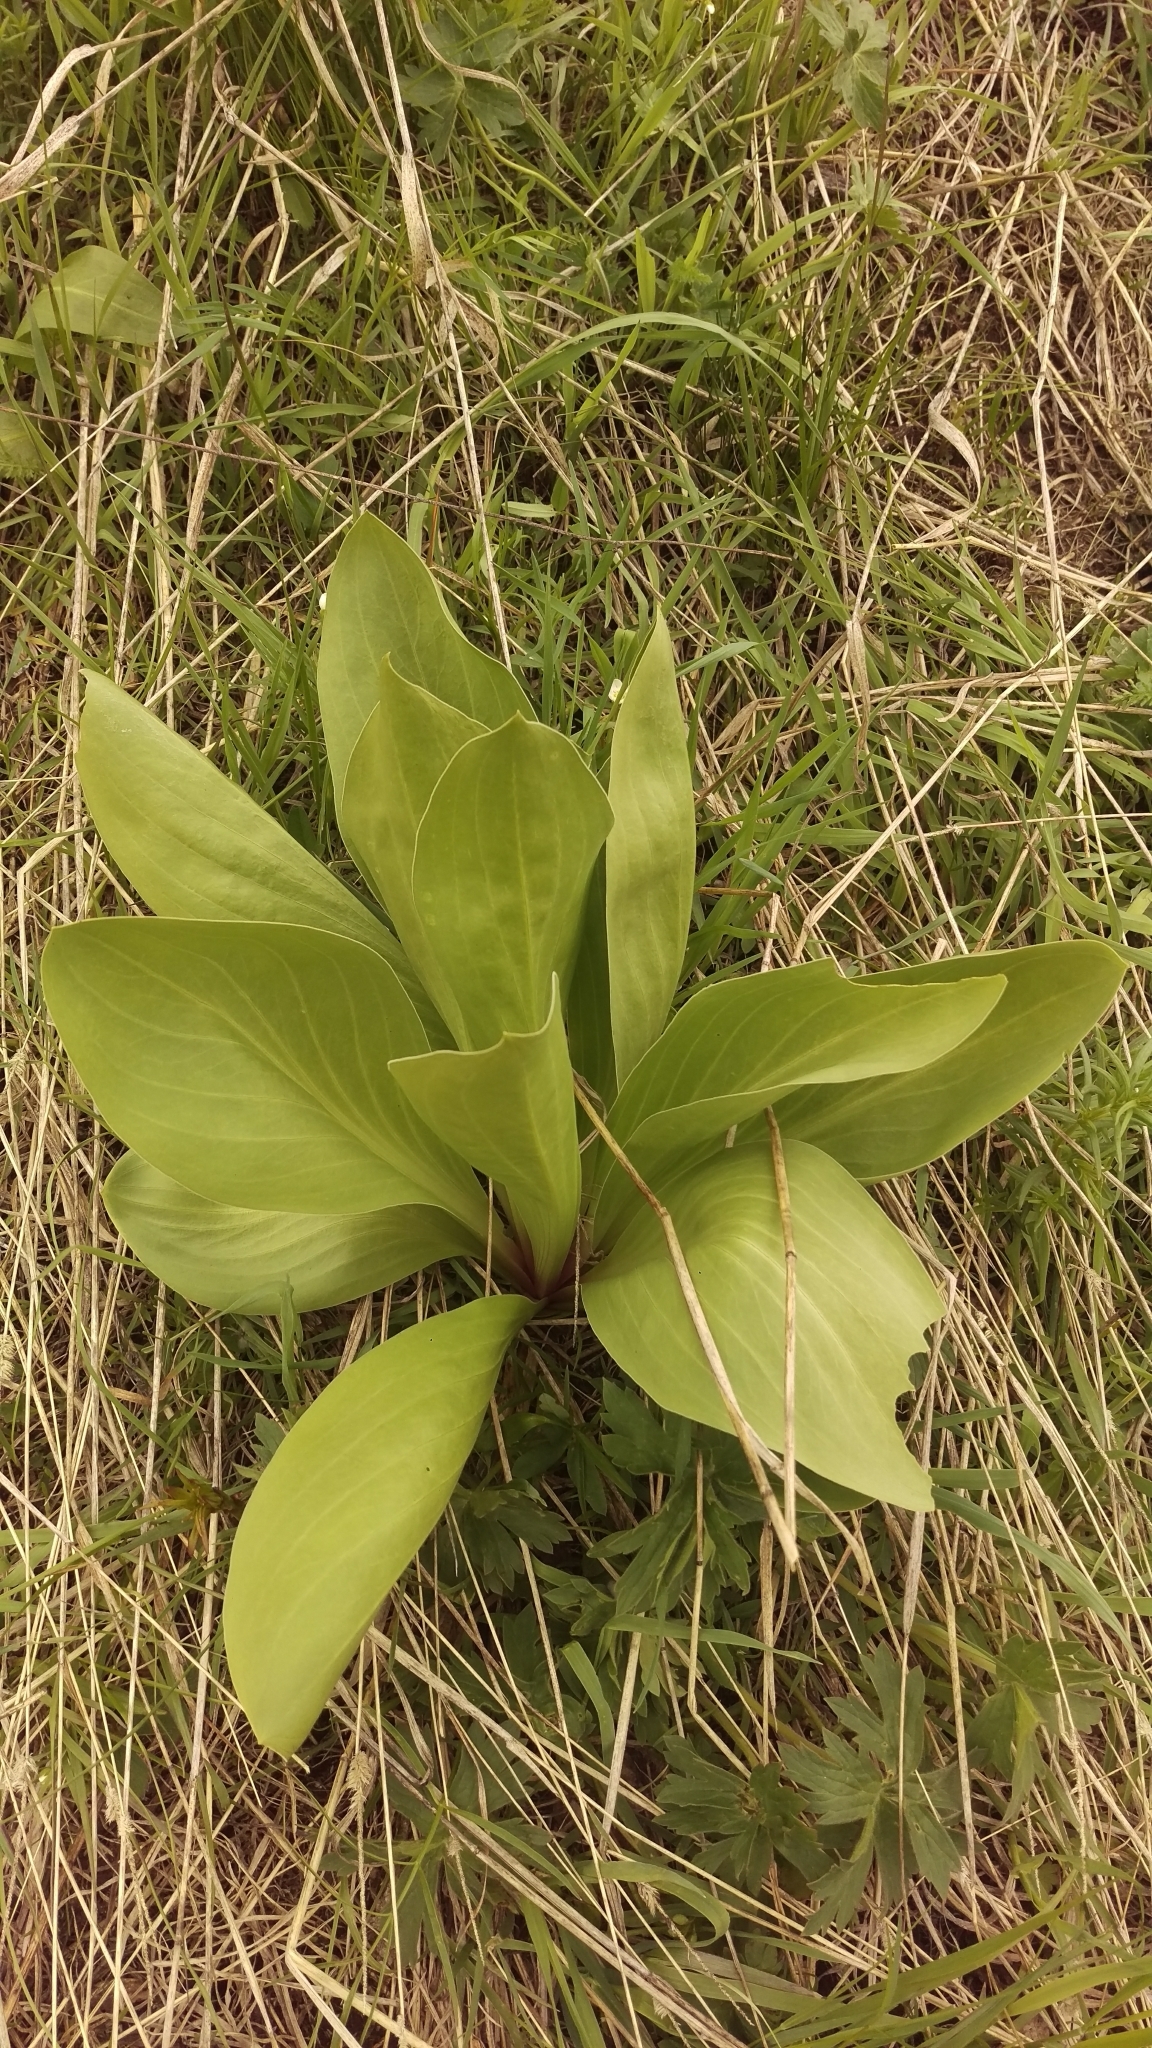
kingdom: Plantae
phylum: Tracheophyta
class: Magnoliopsida
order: Gentianales
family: Gentianaceae
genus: Frasera
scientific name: Frasera speciosa
